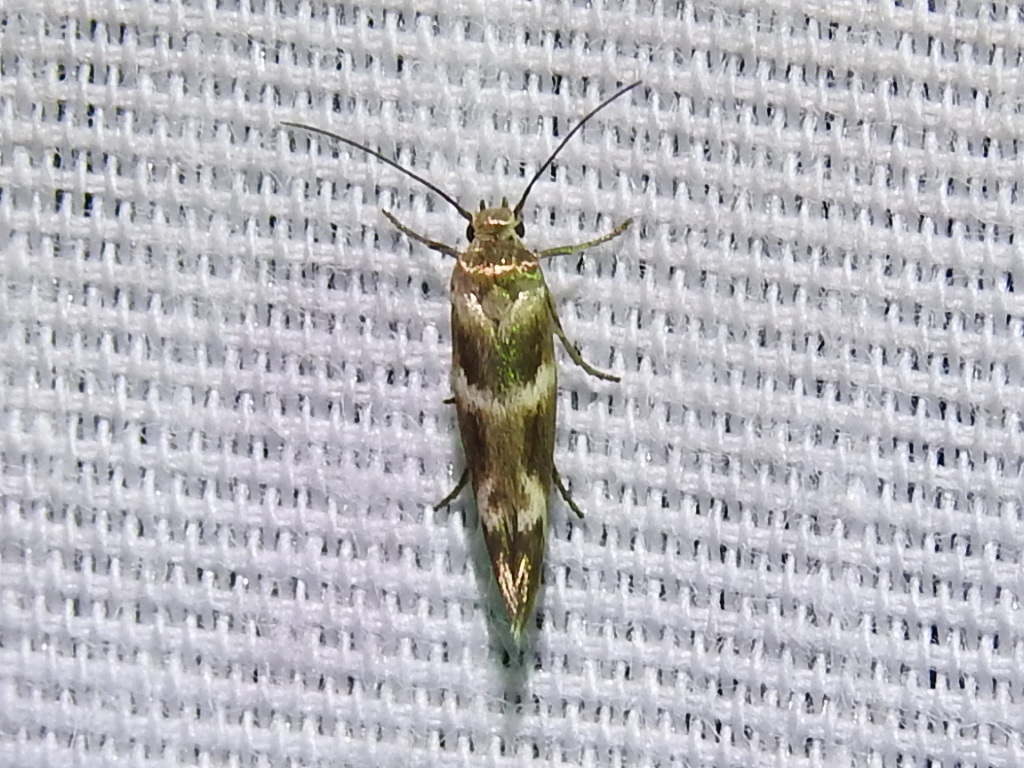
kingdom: Animalia
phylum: Arthropoda
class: Insecta
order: Lepidoptera
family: Scythrididae
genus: Scythris
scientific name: Scythris trivinctella
